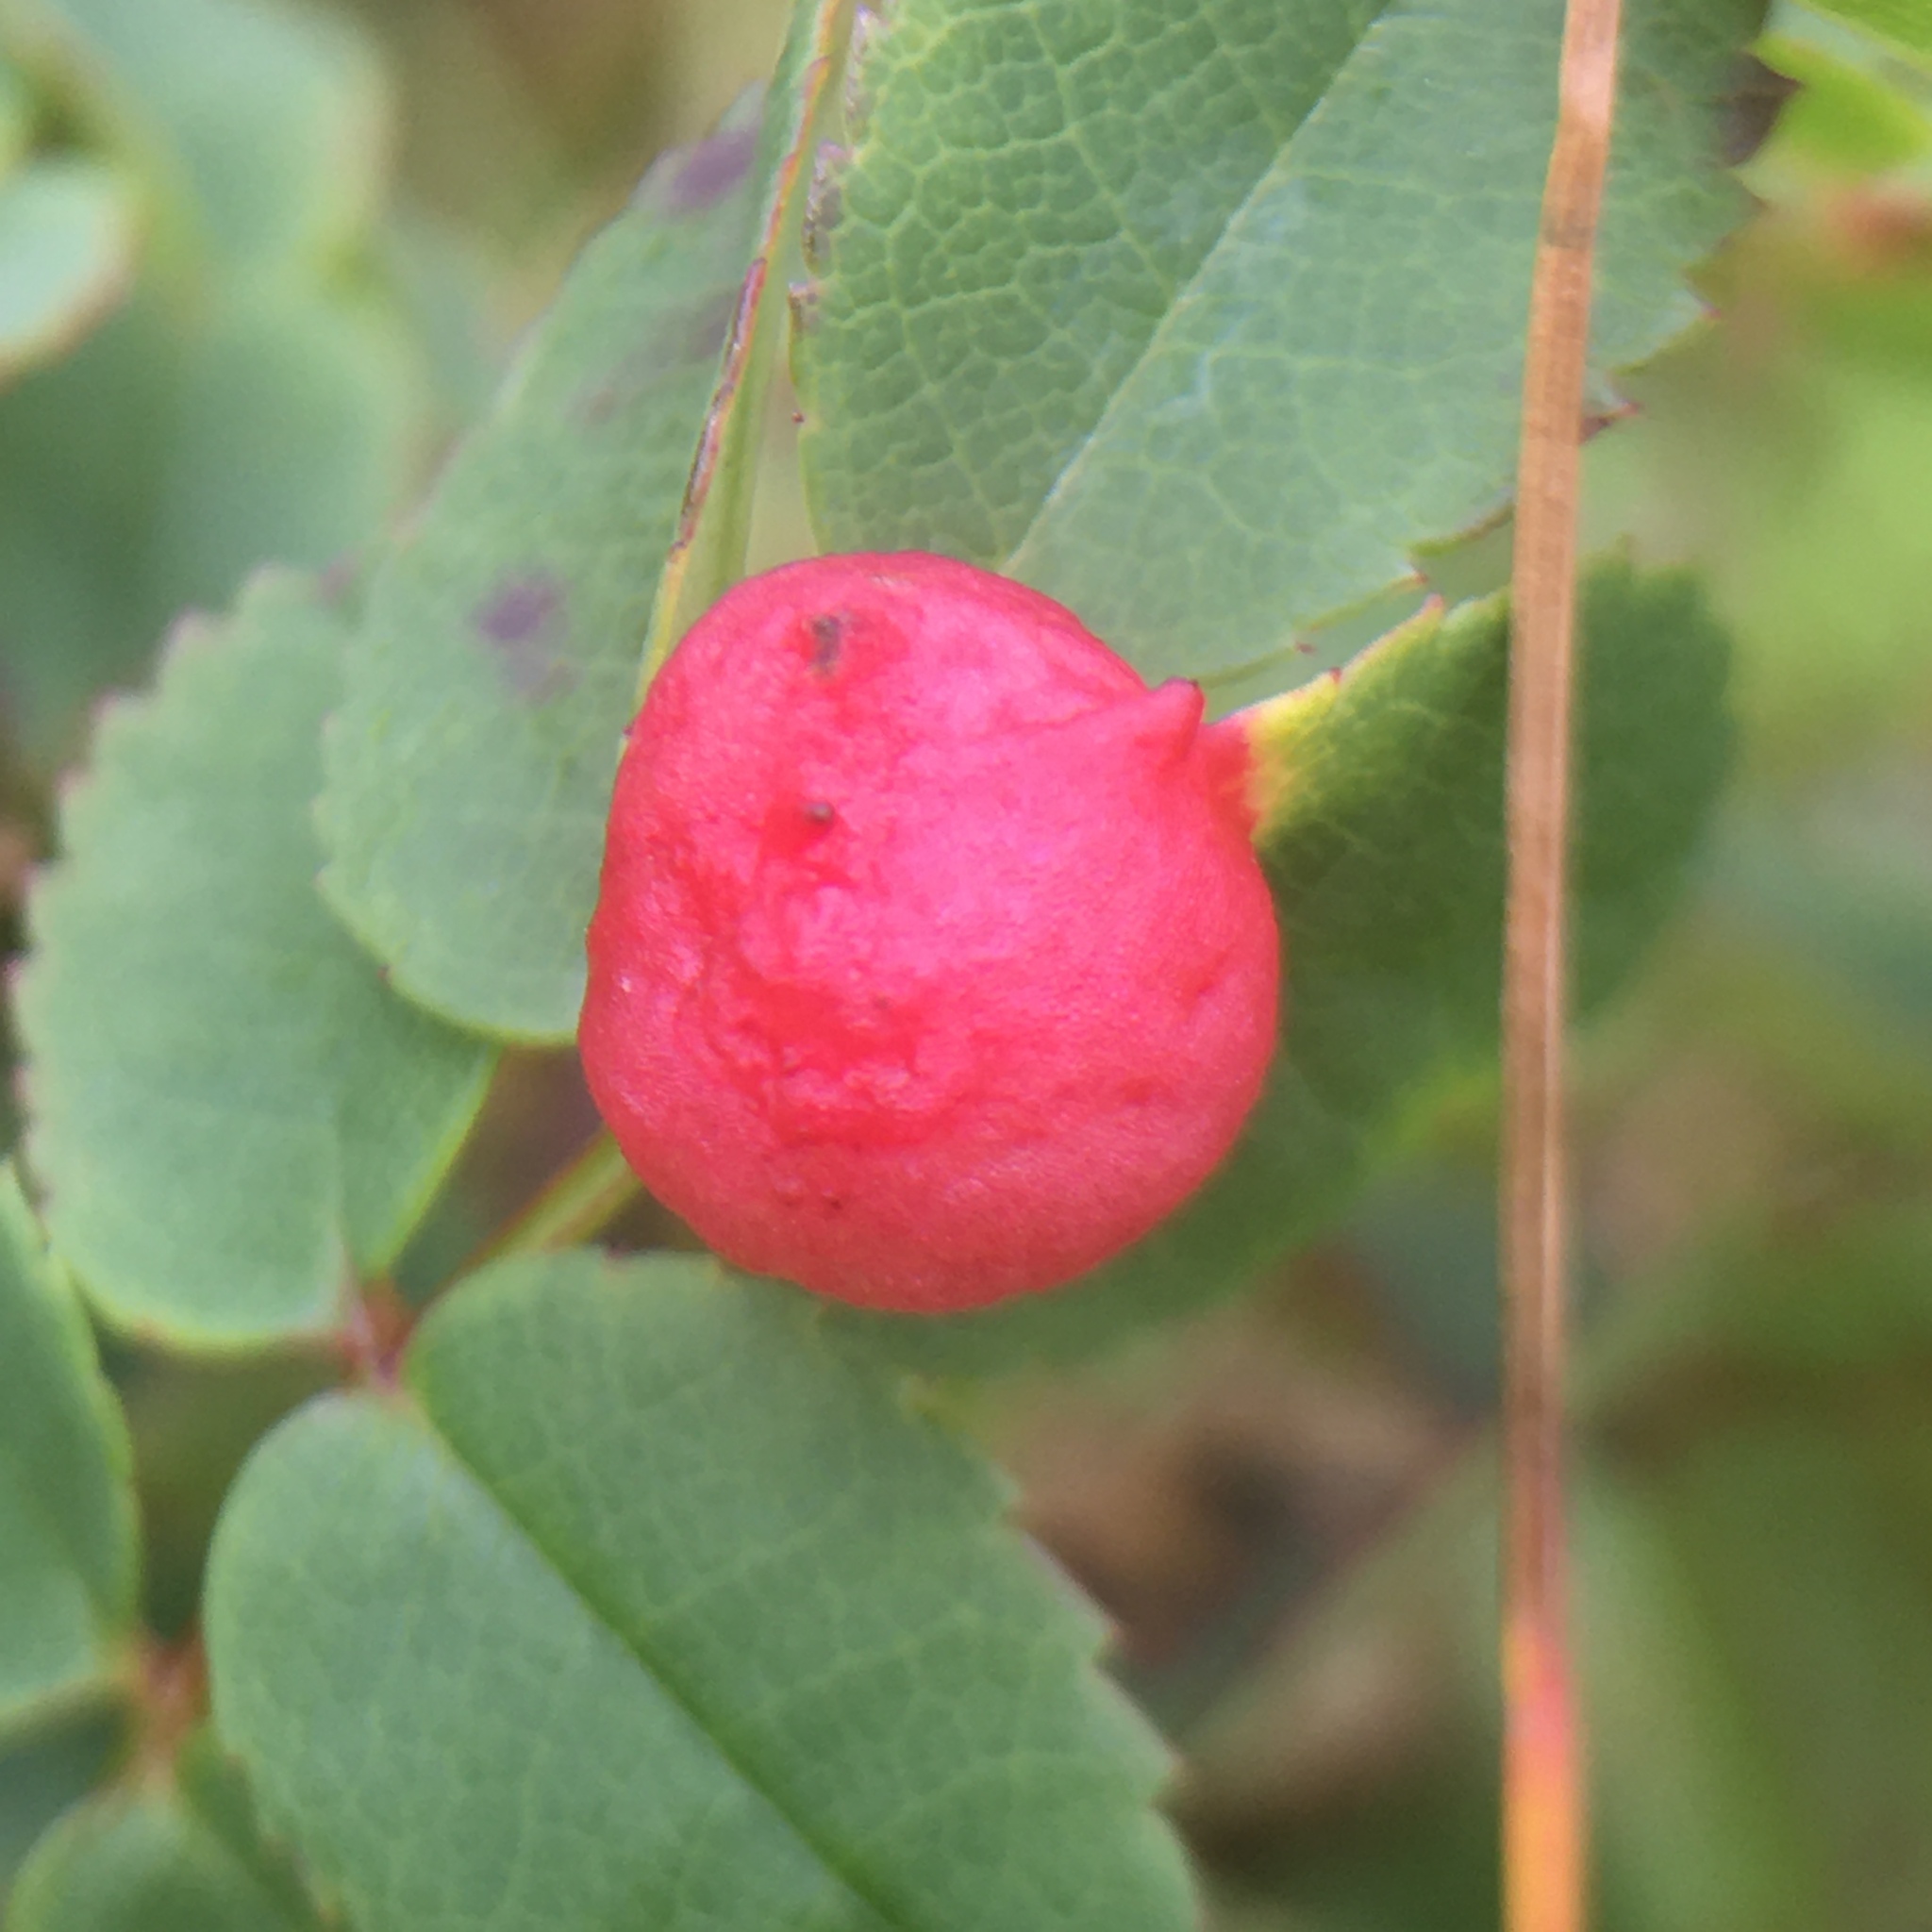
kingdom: Animalia
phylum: Arthropoda
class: Insecta
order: Hymenoptera
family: Cynipidae
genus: Diplolepis
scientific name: Diplolepis spinosissimae
